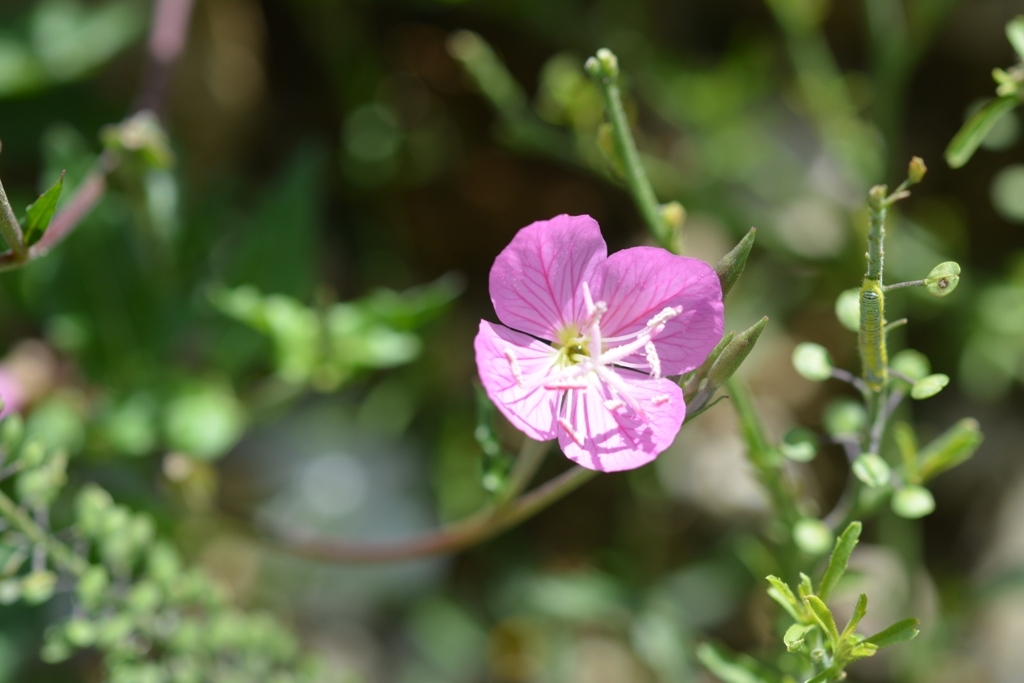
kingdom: Plantae
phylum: Tracheophyta
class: Magnoliopsida
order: Myrtales
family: Onagraceae
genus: Oenothera
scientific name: Oenothera rosea
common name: Rosy evening-primrose
